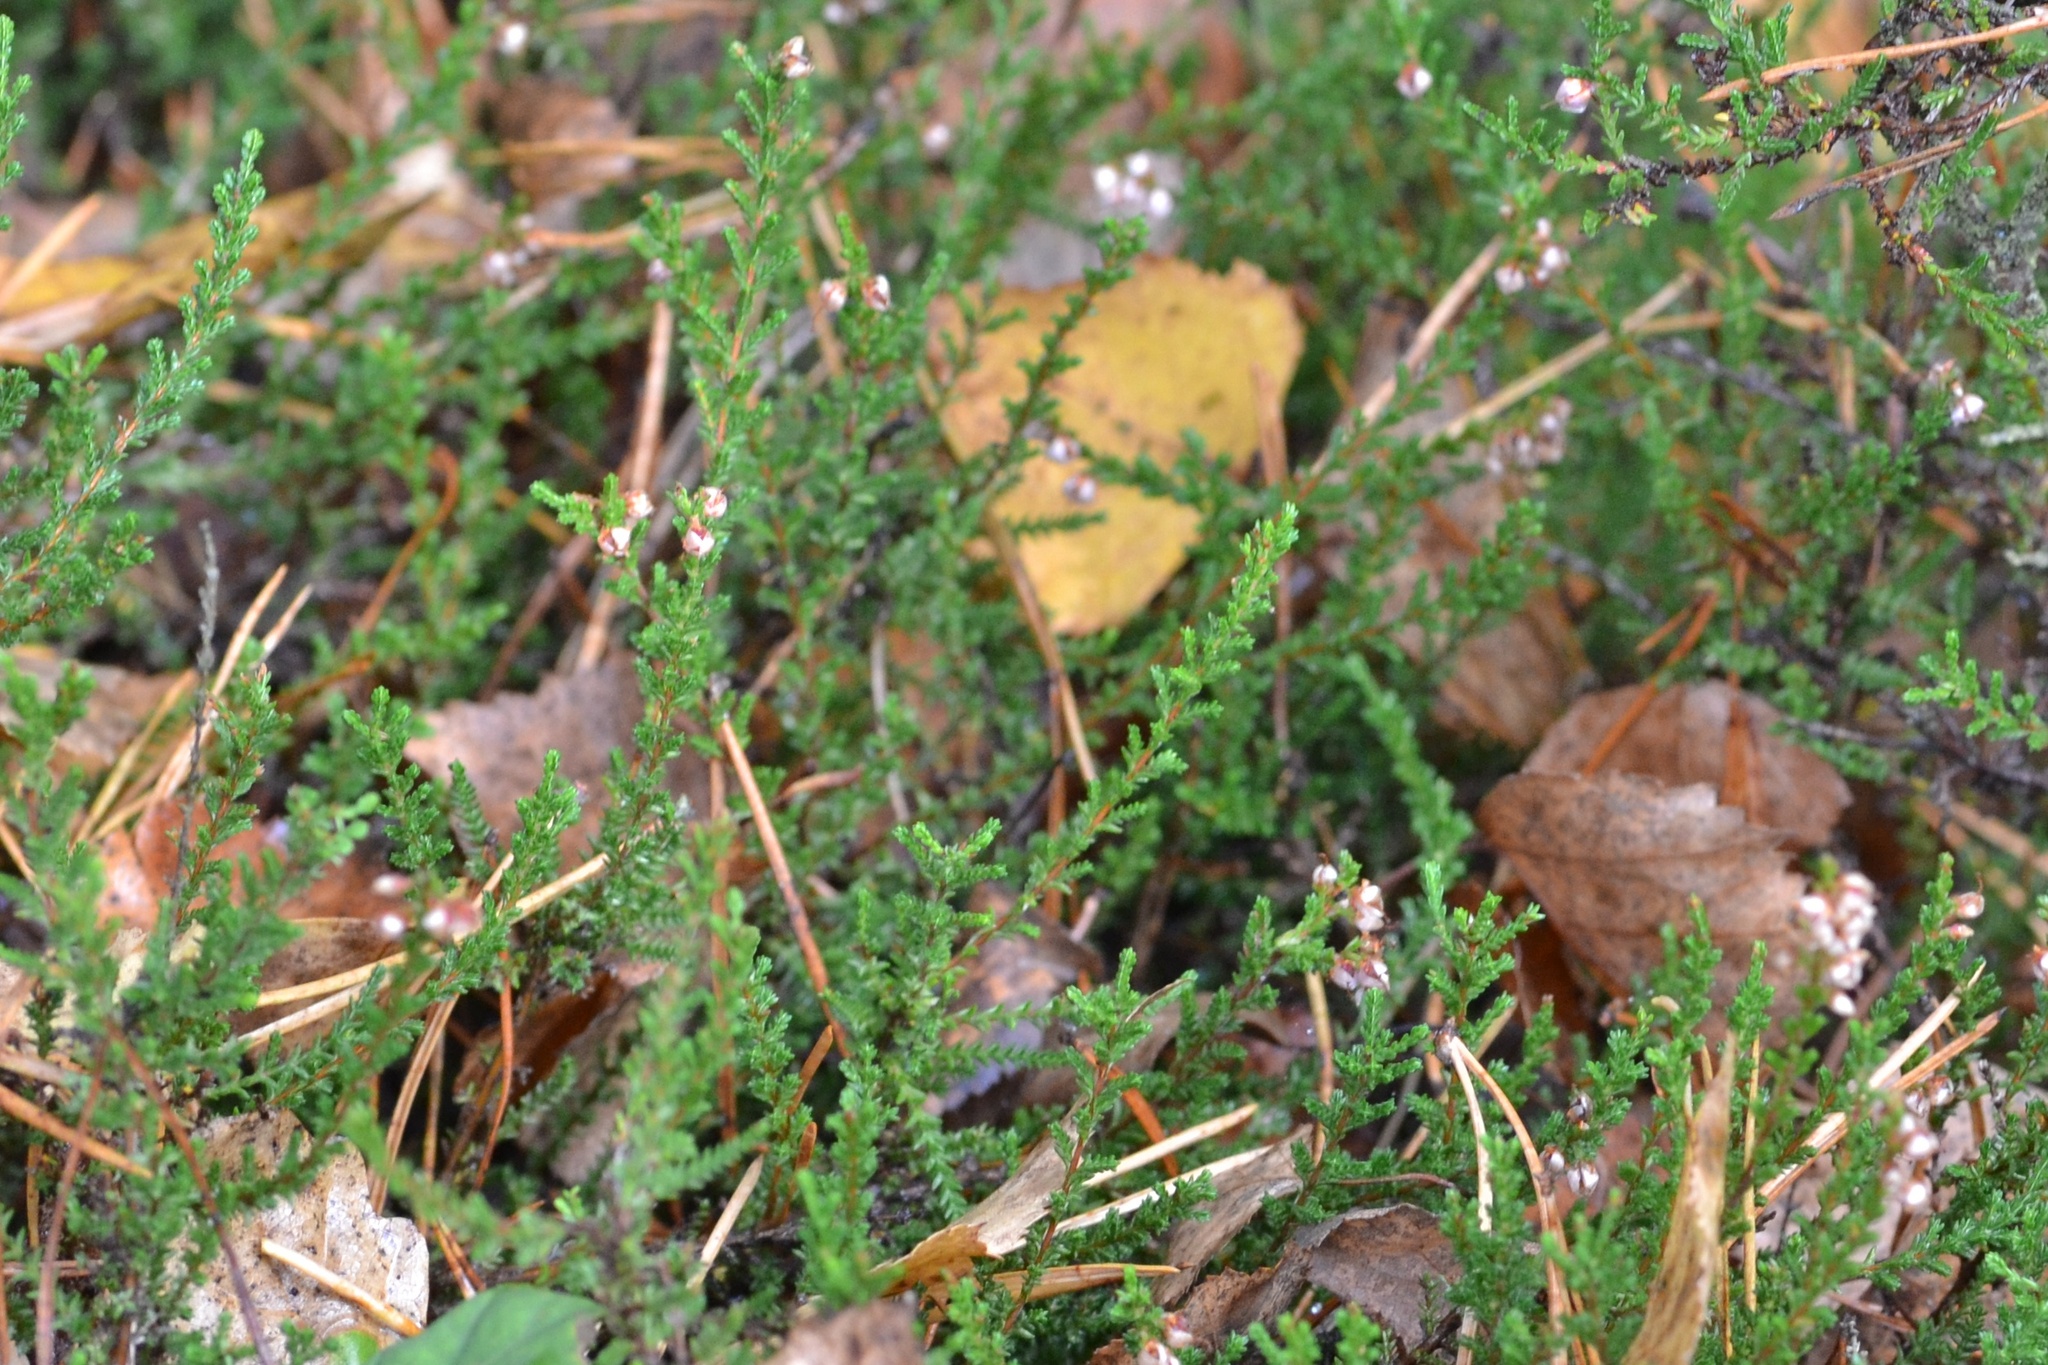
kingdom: Plantae
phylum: Tracheophyta
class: Magnoliopsida
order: Ericales
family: Ericaceae
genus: Calluna
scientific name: Calluna vulgaris
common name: Heather
